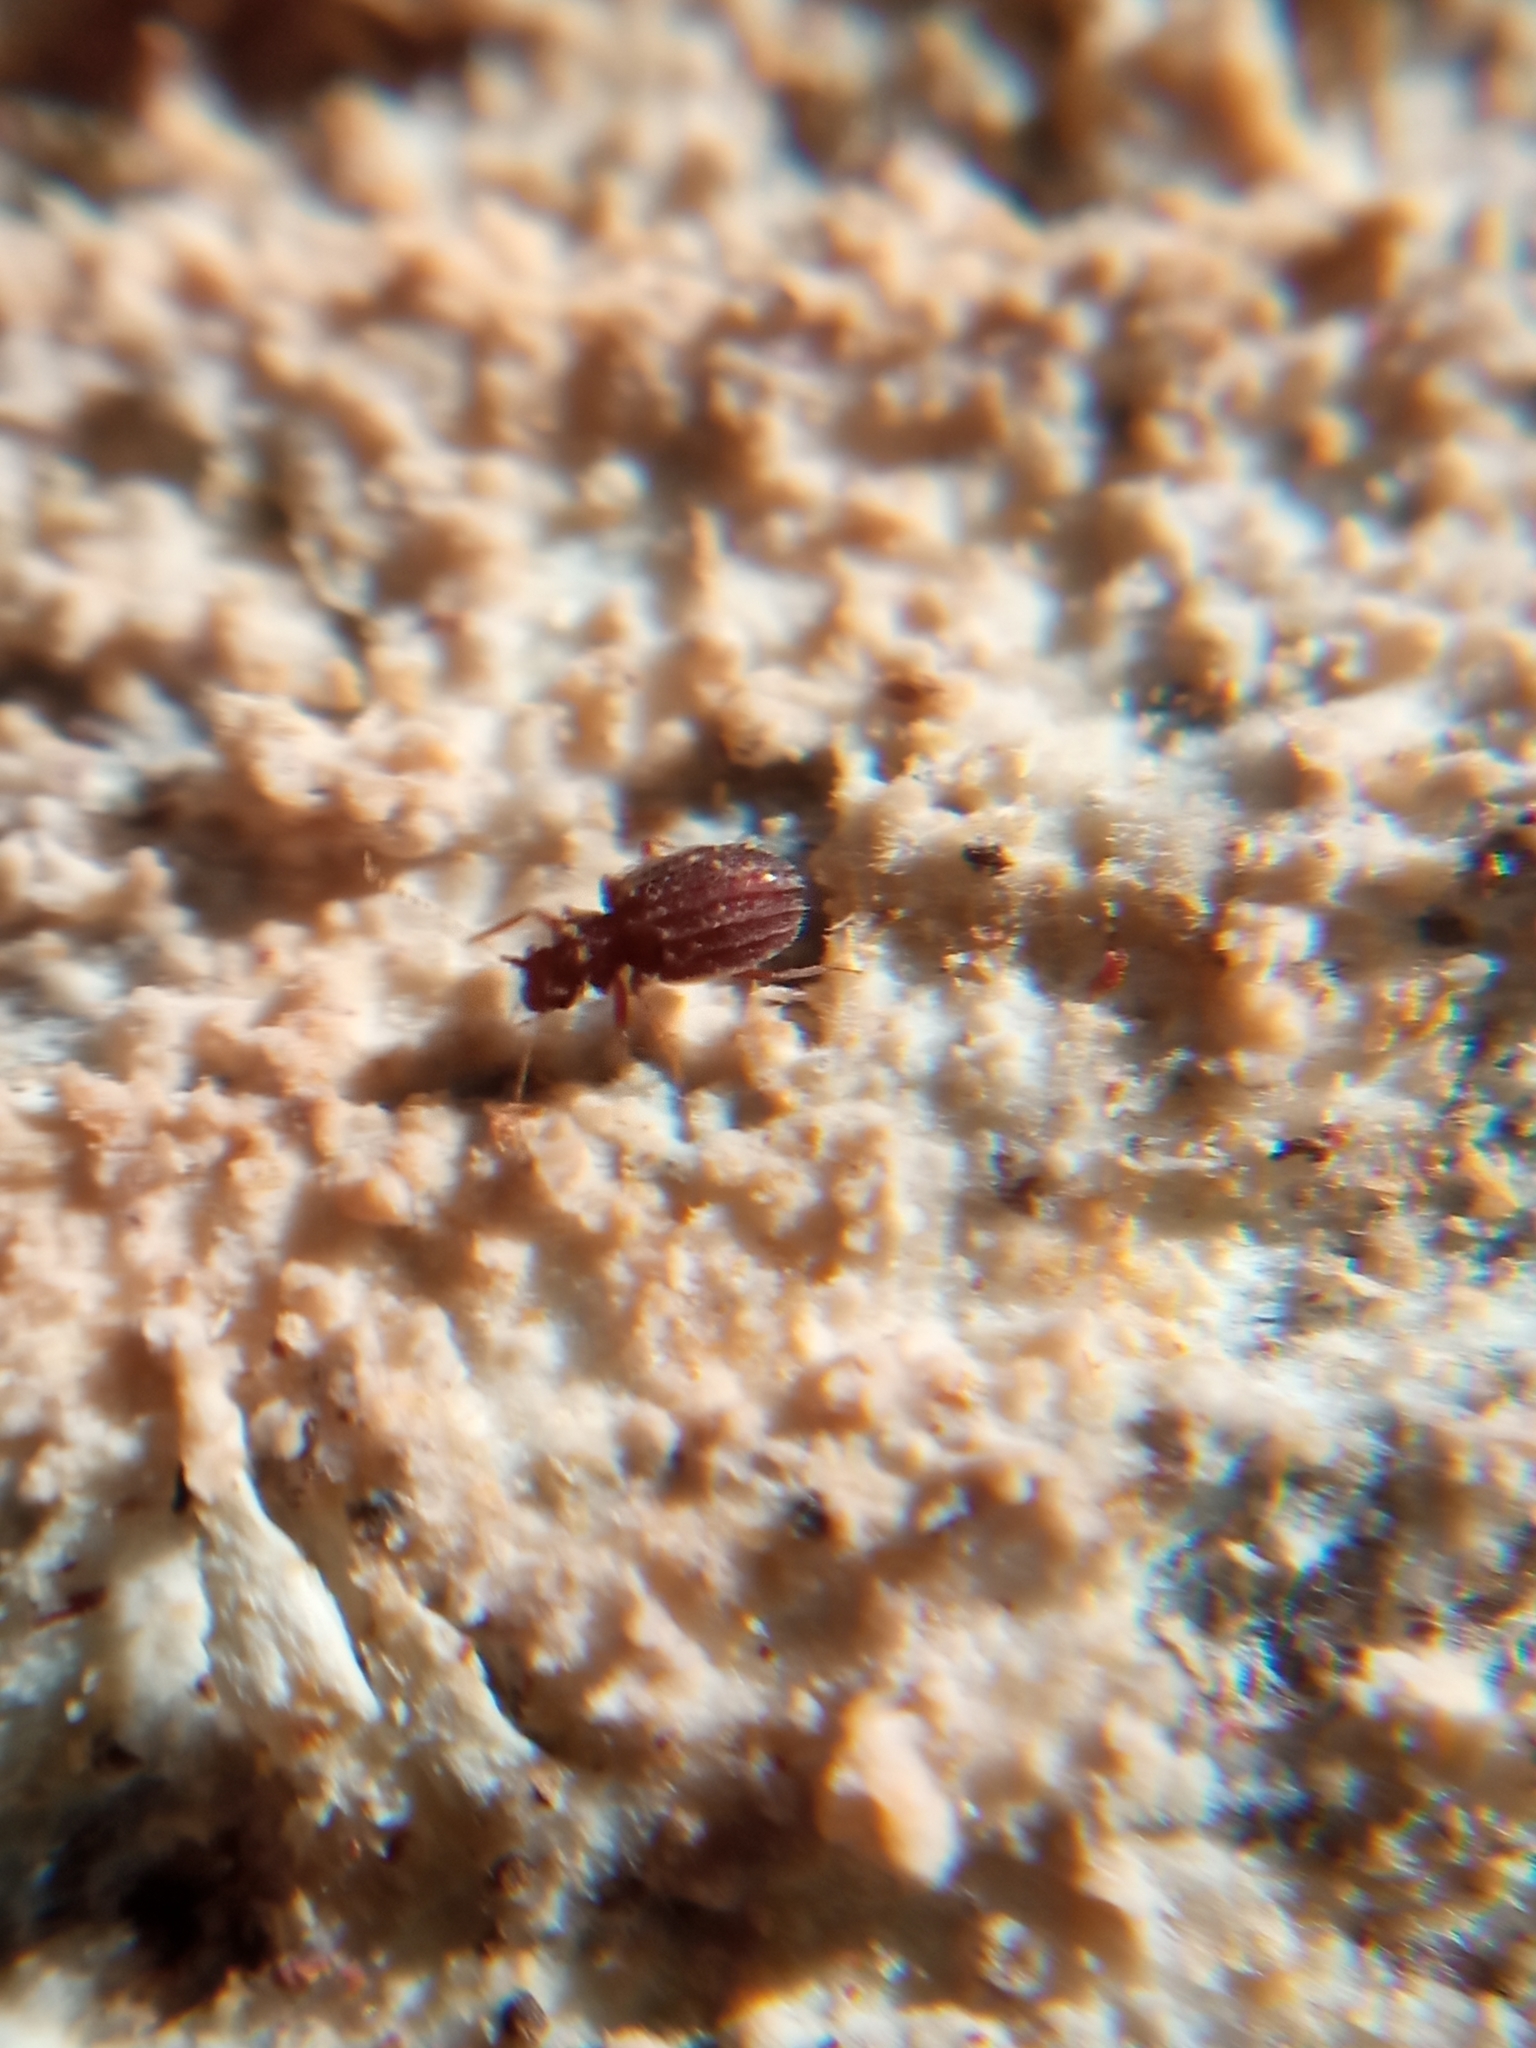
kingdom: Animalia
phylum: Arthropoda
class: Insecta
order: Coleoptera
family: Staphylinidae
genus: Dasycerus
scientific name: Dasycerus sulcatus
